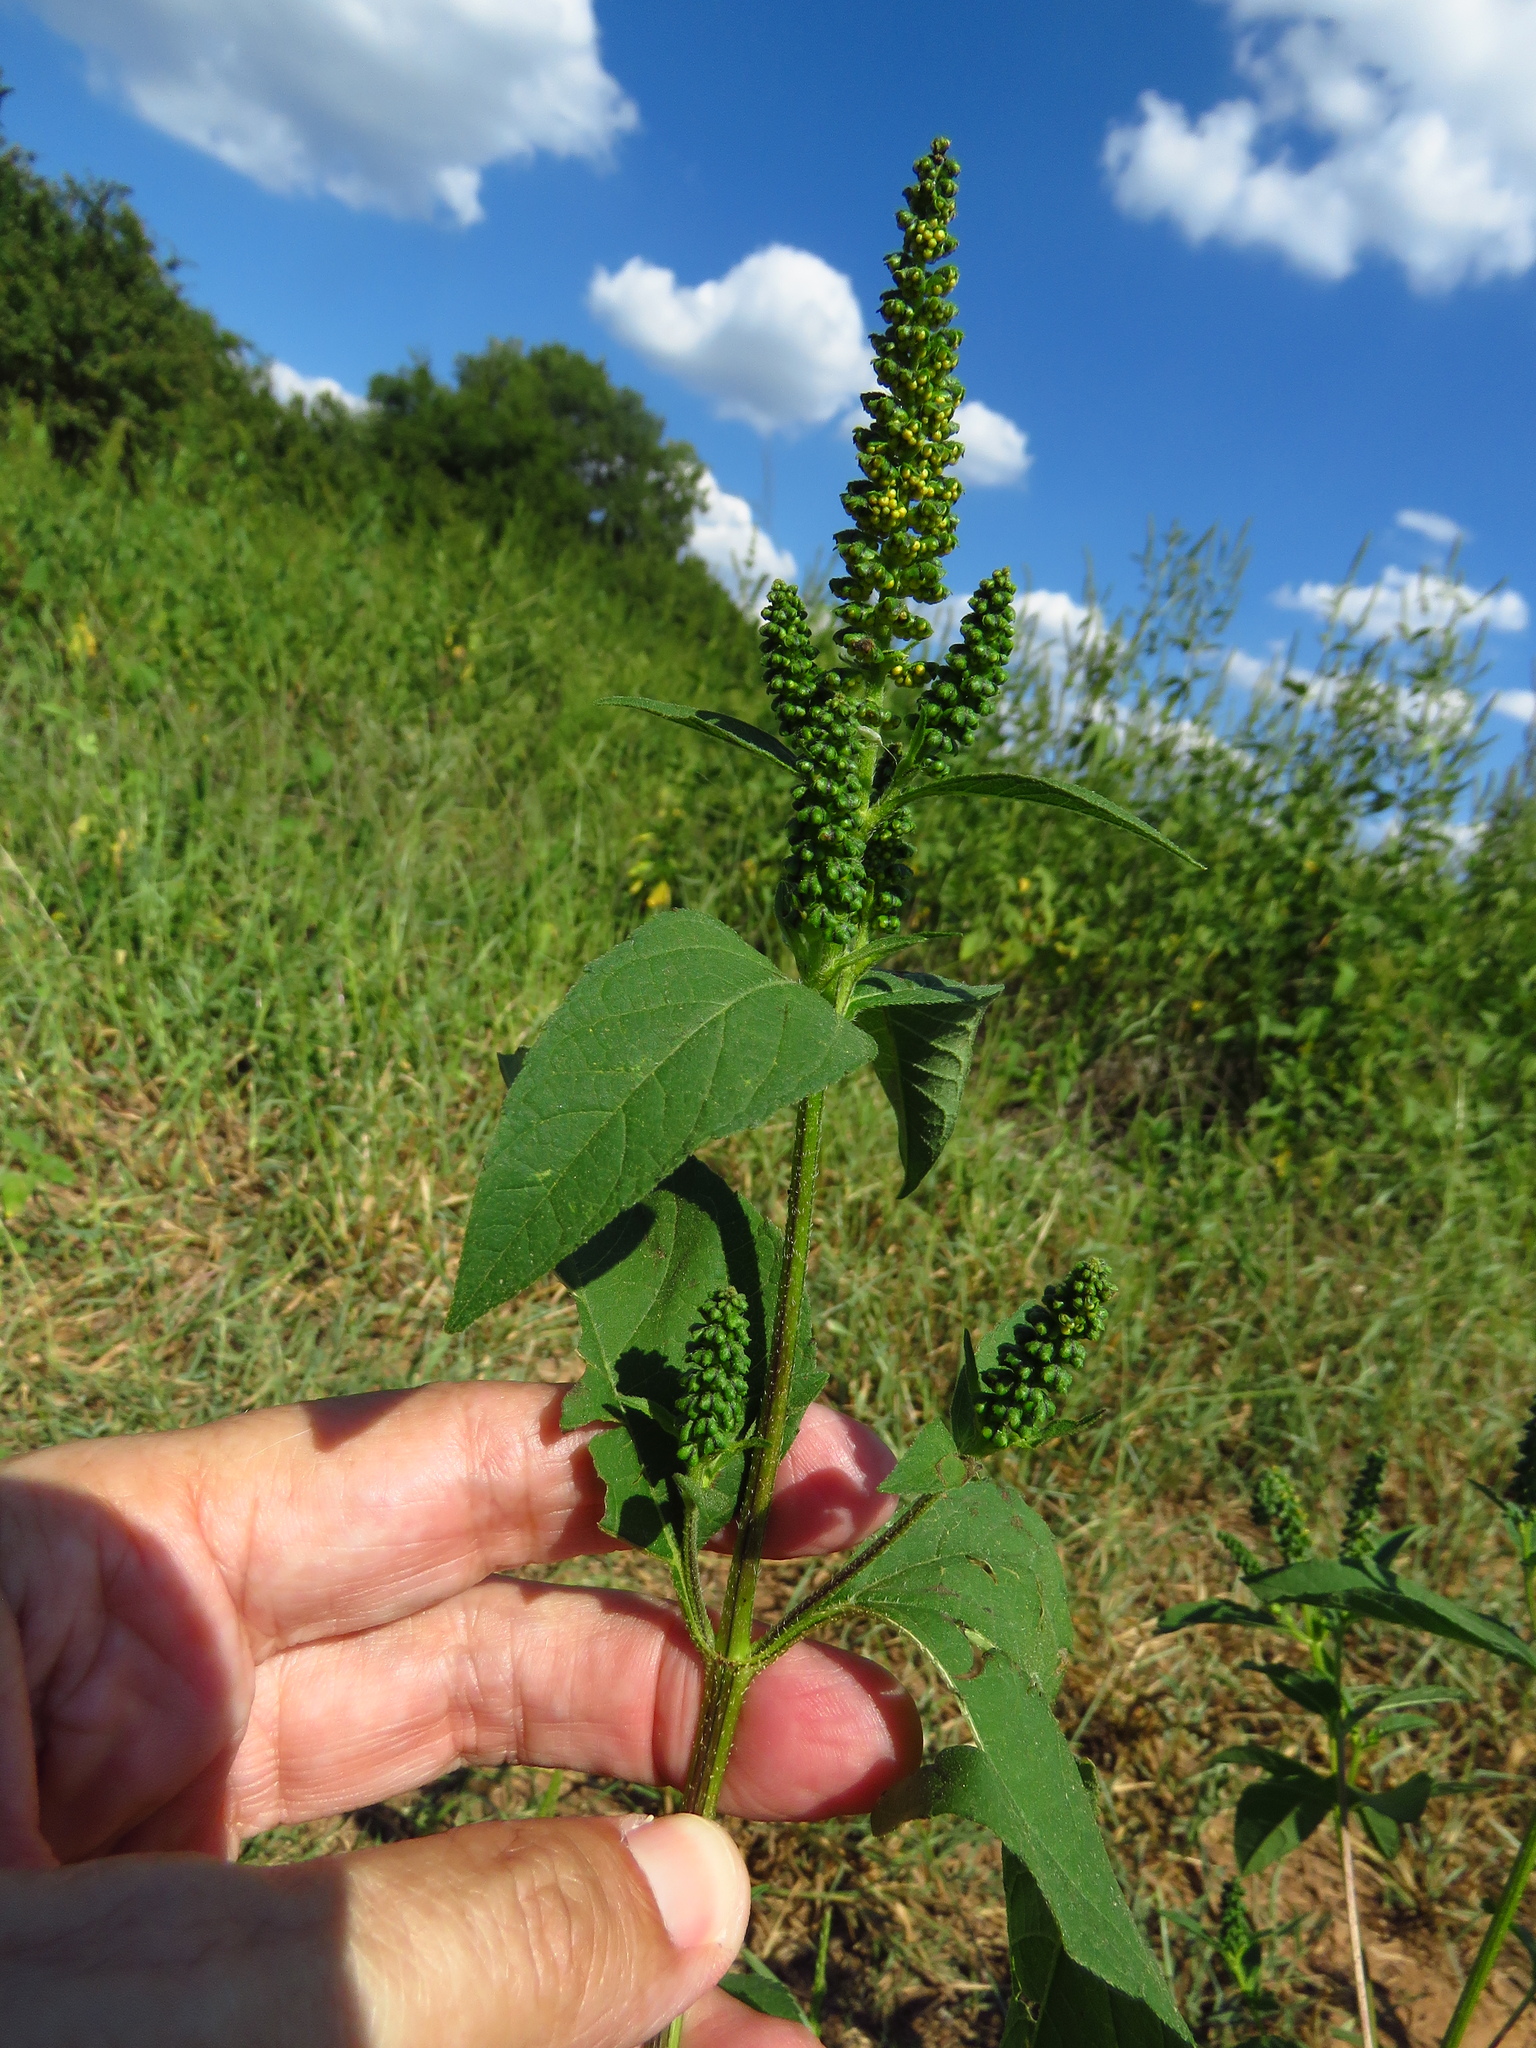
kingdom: Plantae
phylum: Tracheophyta
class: Magnoliopsida
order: Asterales
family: Asteraceae
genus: Ambrosia
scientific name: Ambrosia trifida
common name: Giant ragweed
